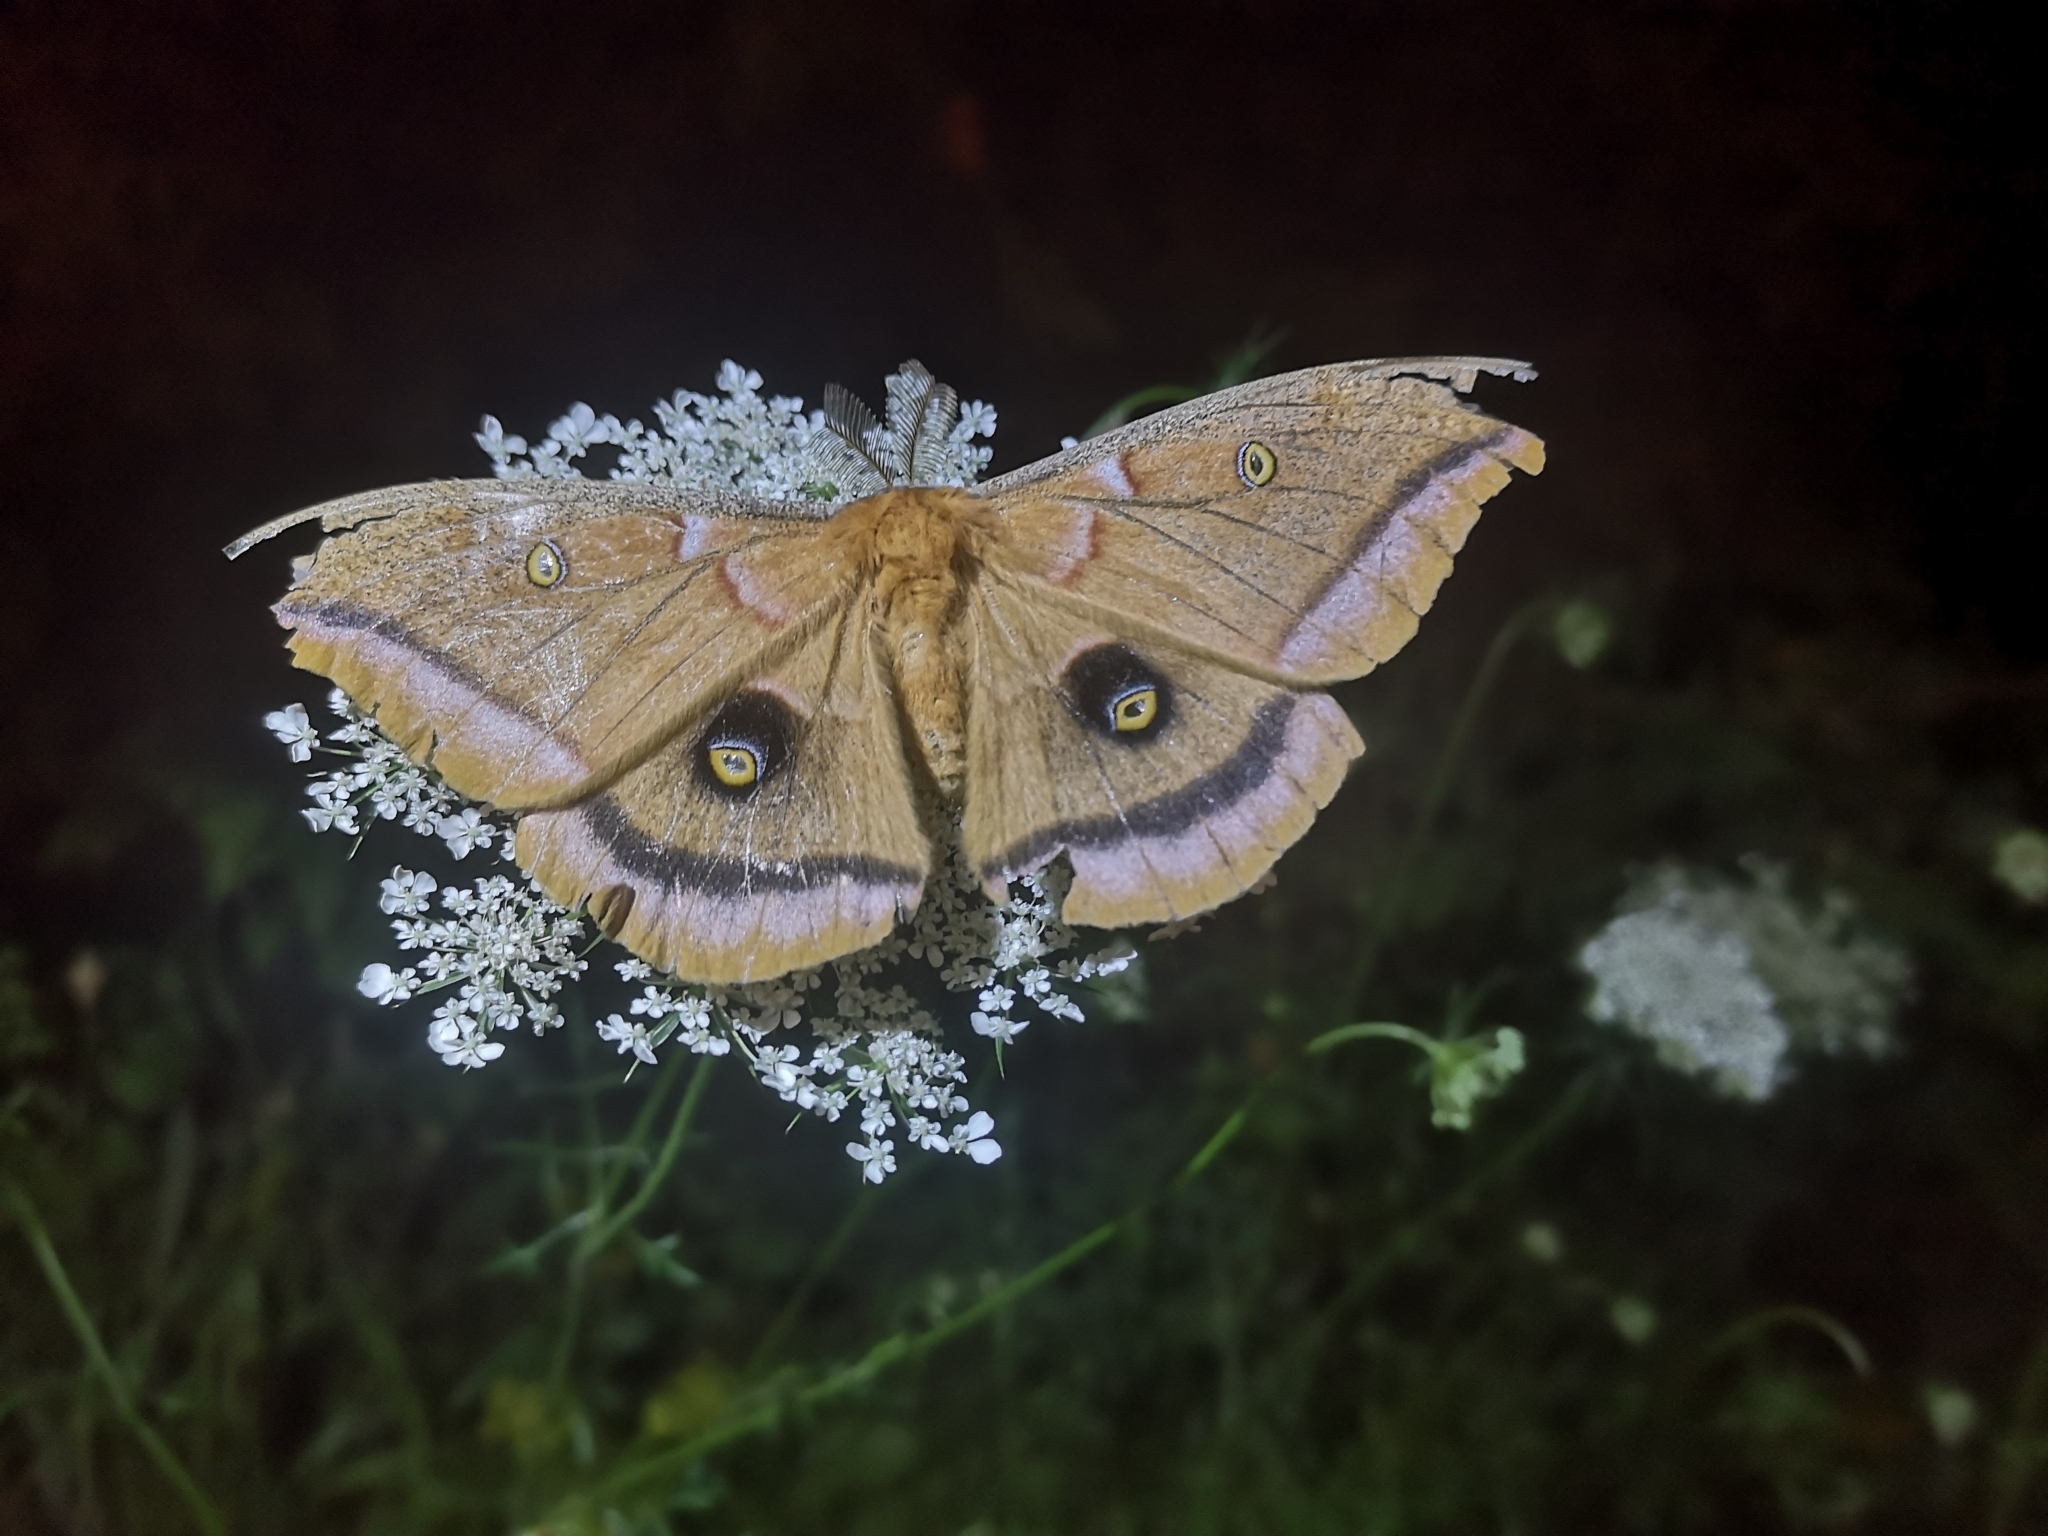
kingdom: Animalia
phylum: Arthropoda
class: Insecta
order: Lepidoptera
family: Saturniidae
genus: Antheraea
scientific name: Antheraea polyphemus
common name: Polyphemus moth
